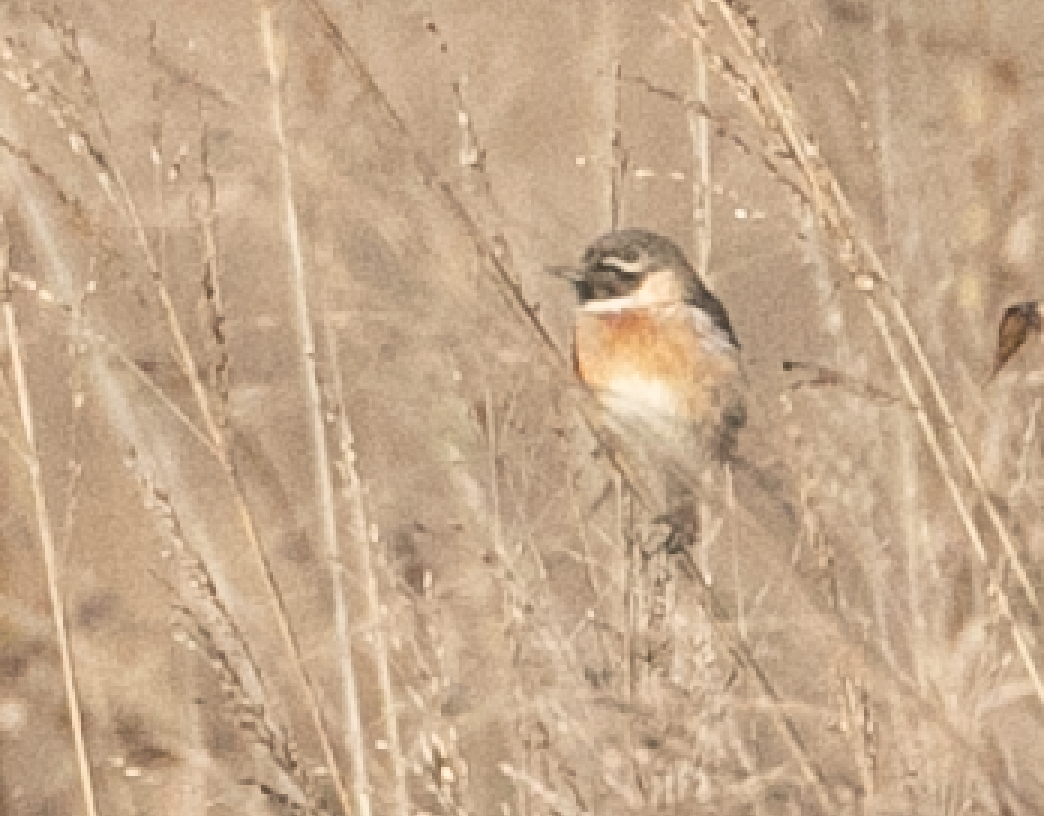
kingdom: Animalia
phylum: Chordata
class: Aves
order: Passeriformes
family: Muscicapidae
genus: Saxicola
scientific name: Saxicola rubicola
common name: European stonechat
